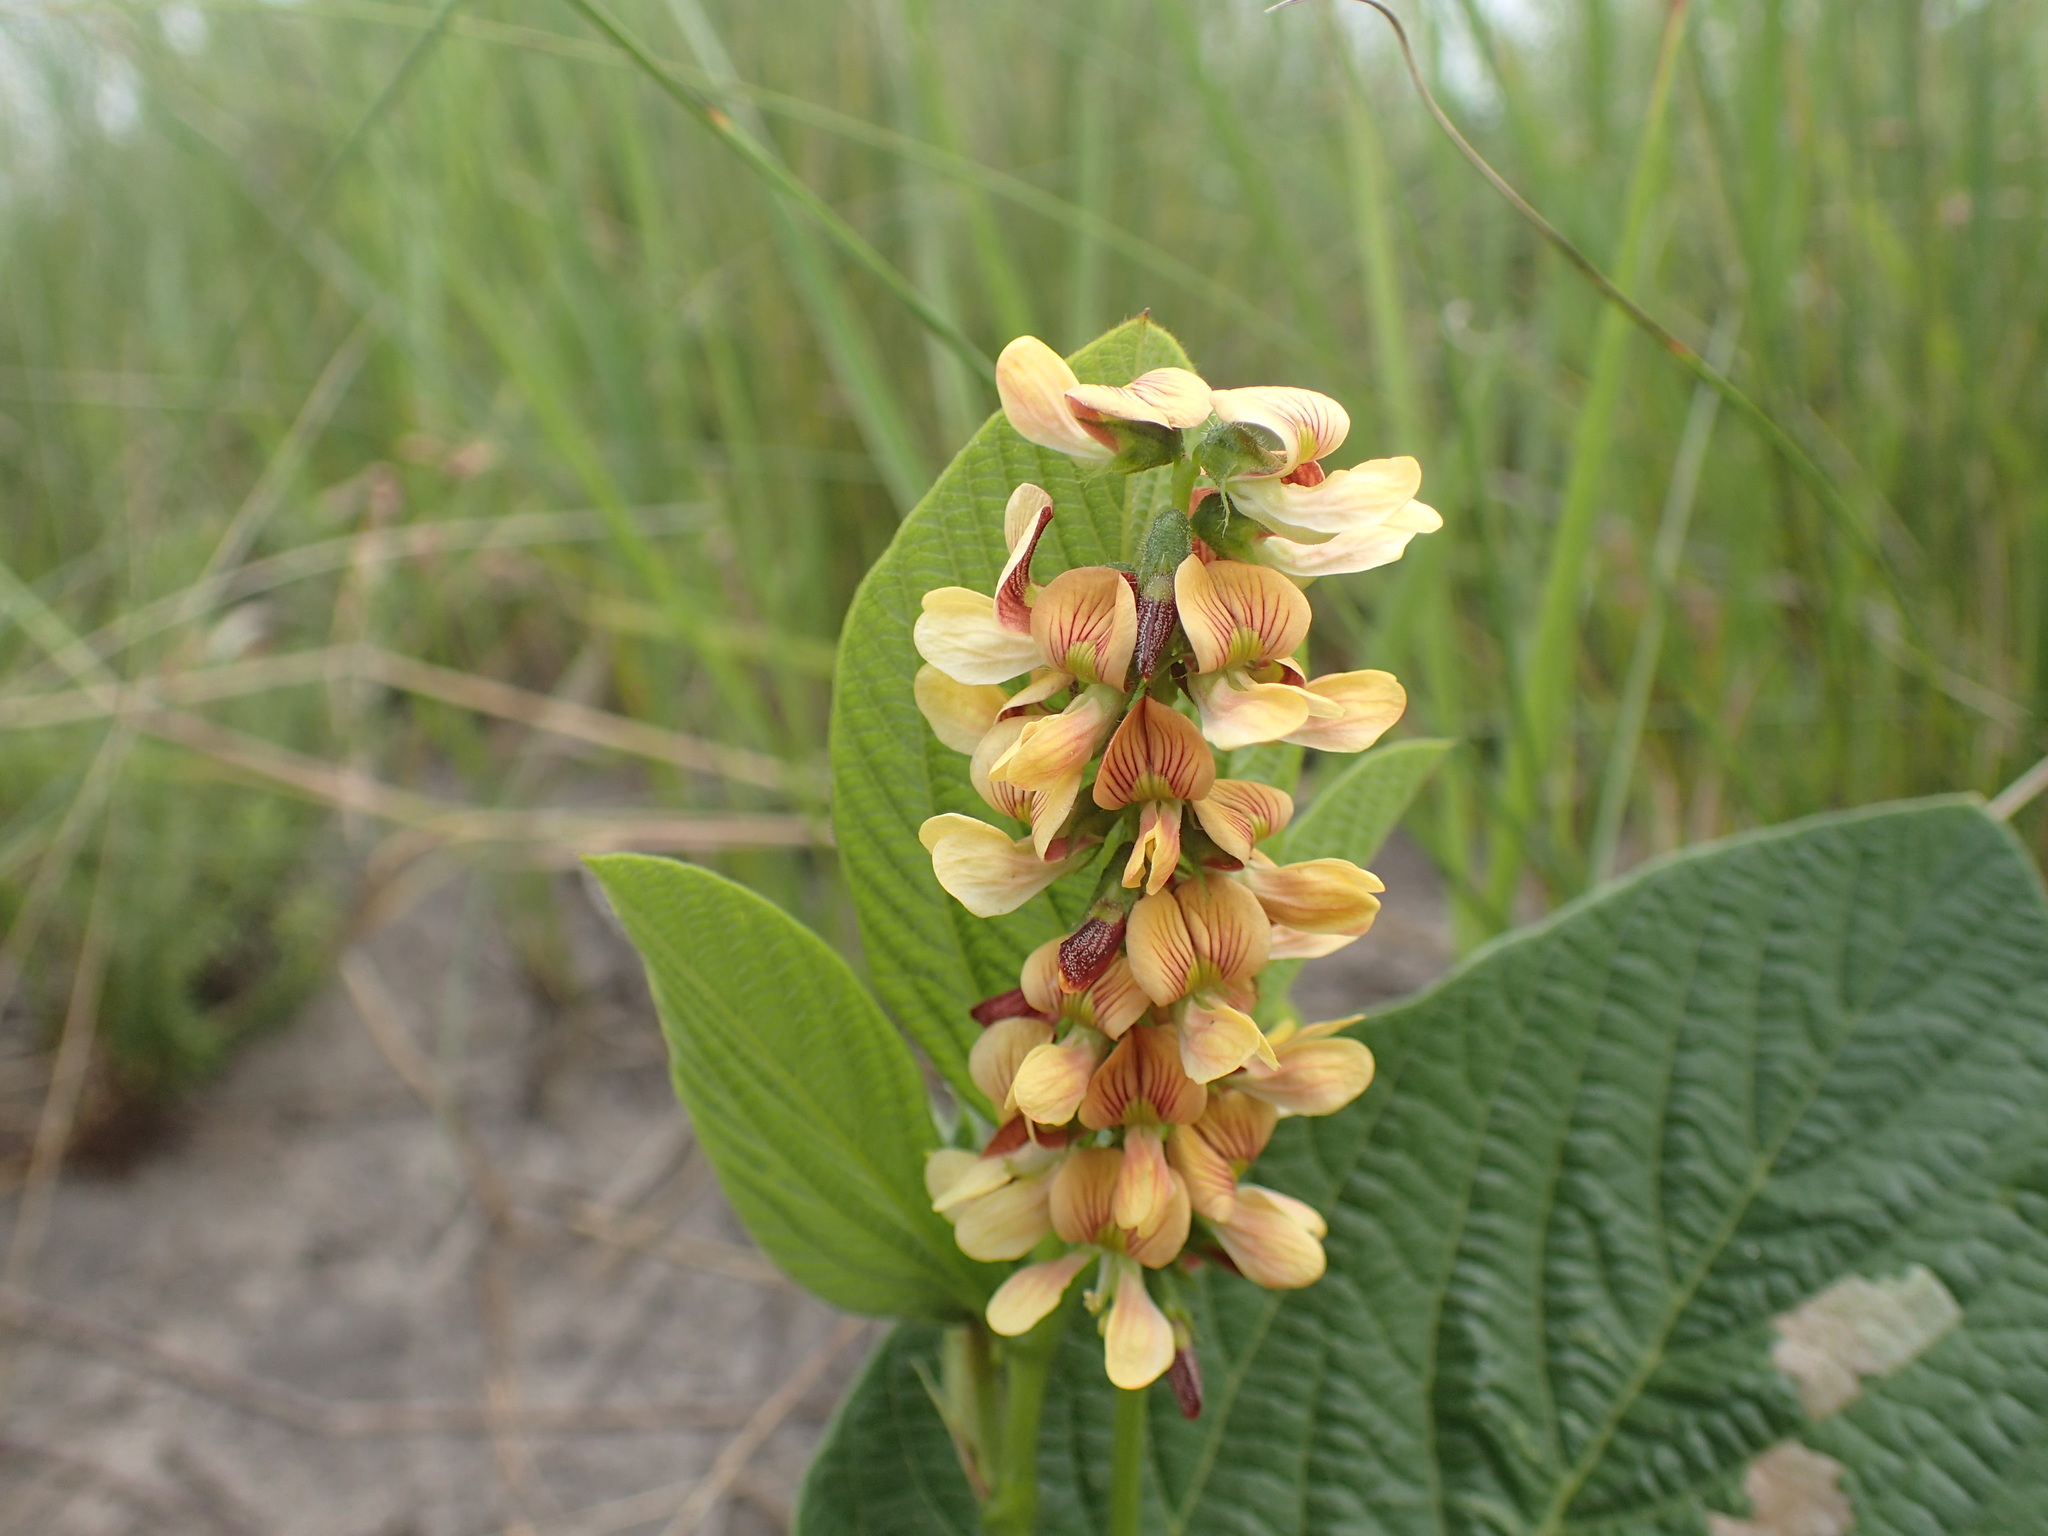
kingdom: Plantae
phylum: Tracheophyta
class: Magnoliopsida
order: Fabales
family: Fabaceae
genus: Eriosema
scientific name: Eriosema cordatum
